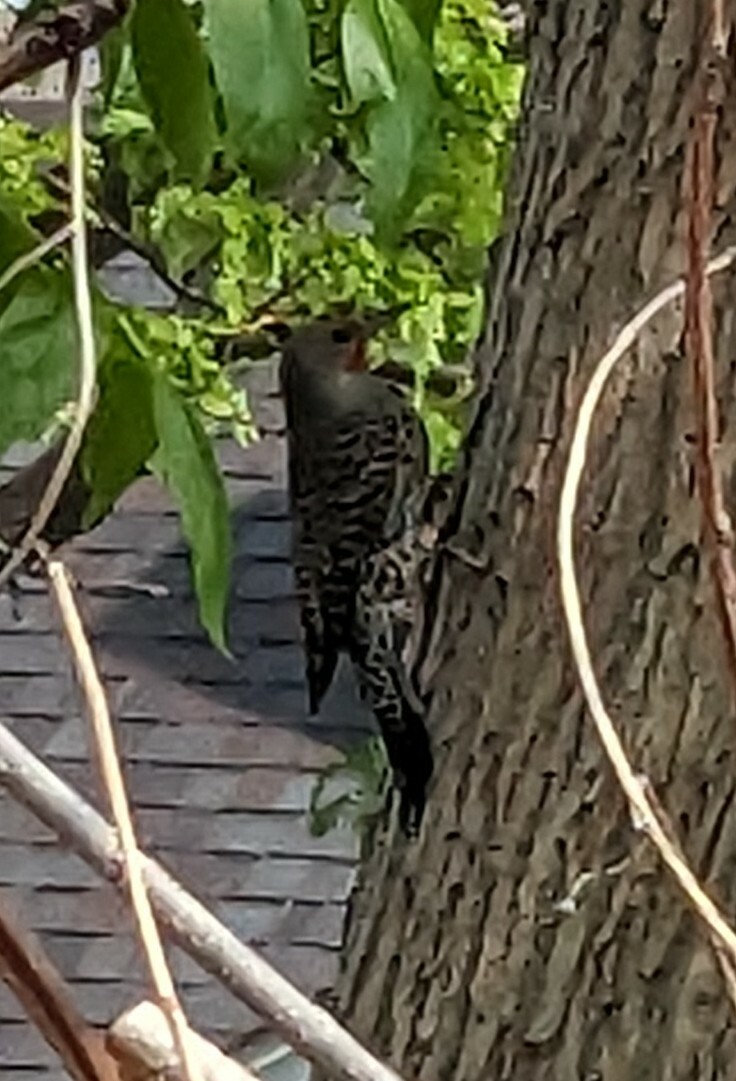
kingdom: Animalia
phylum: Chordata
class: Aves
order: Piciformes
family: Picidae
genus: Colaptes
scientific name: Colaptes auratus
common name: Northern flicker
